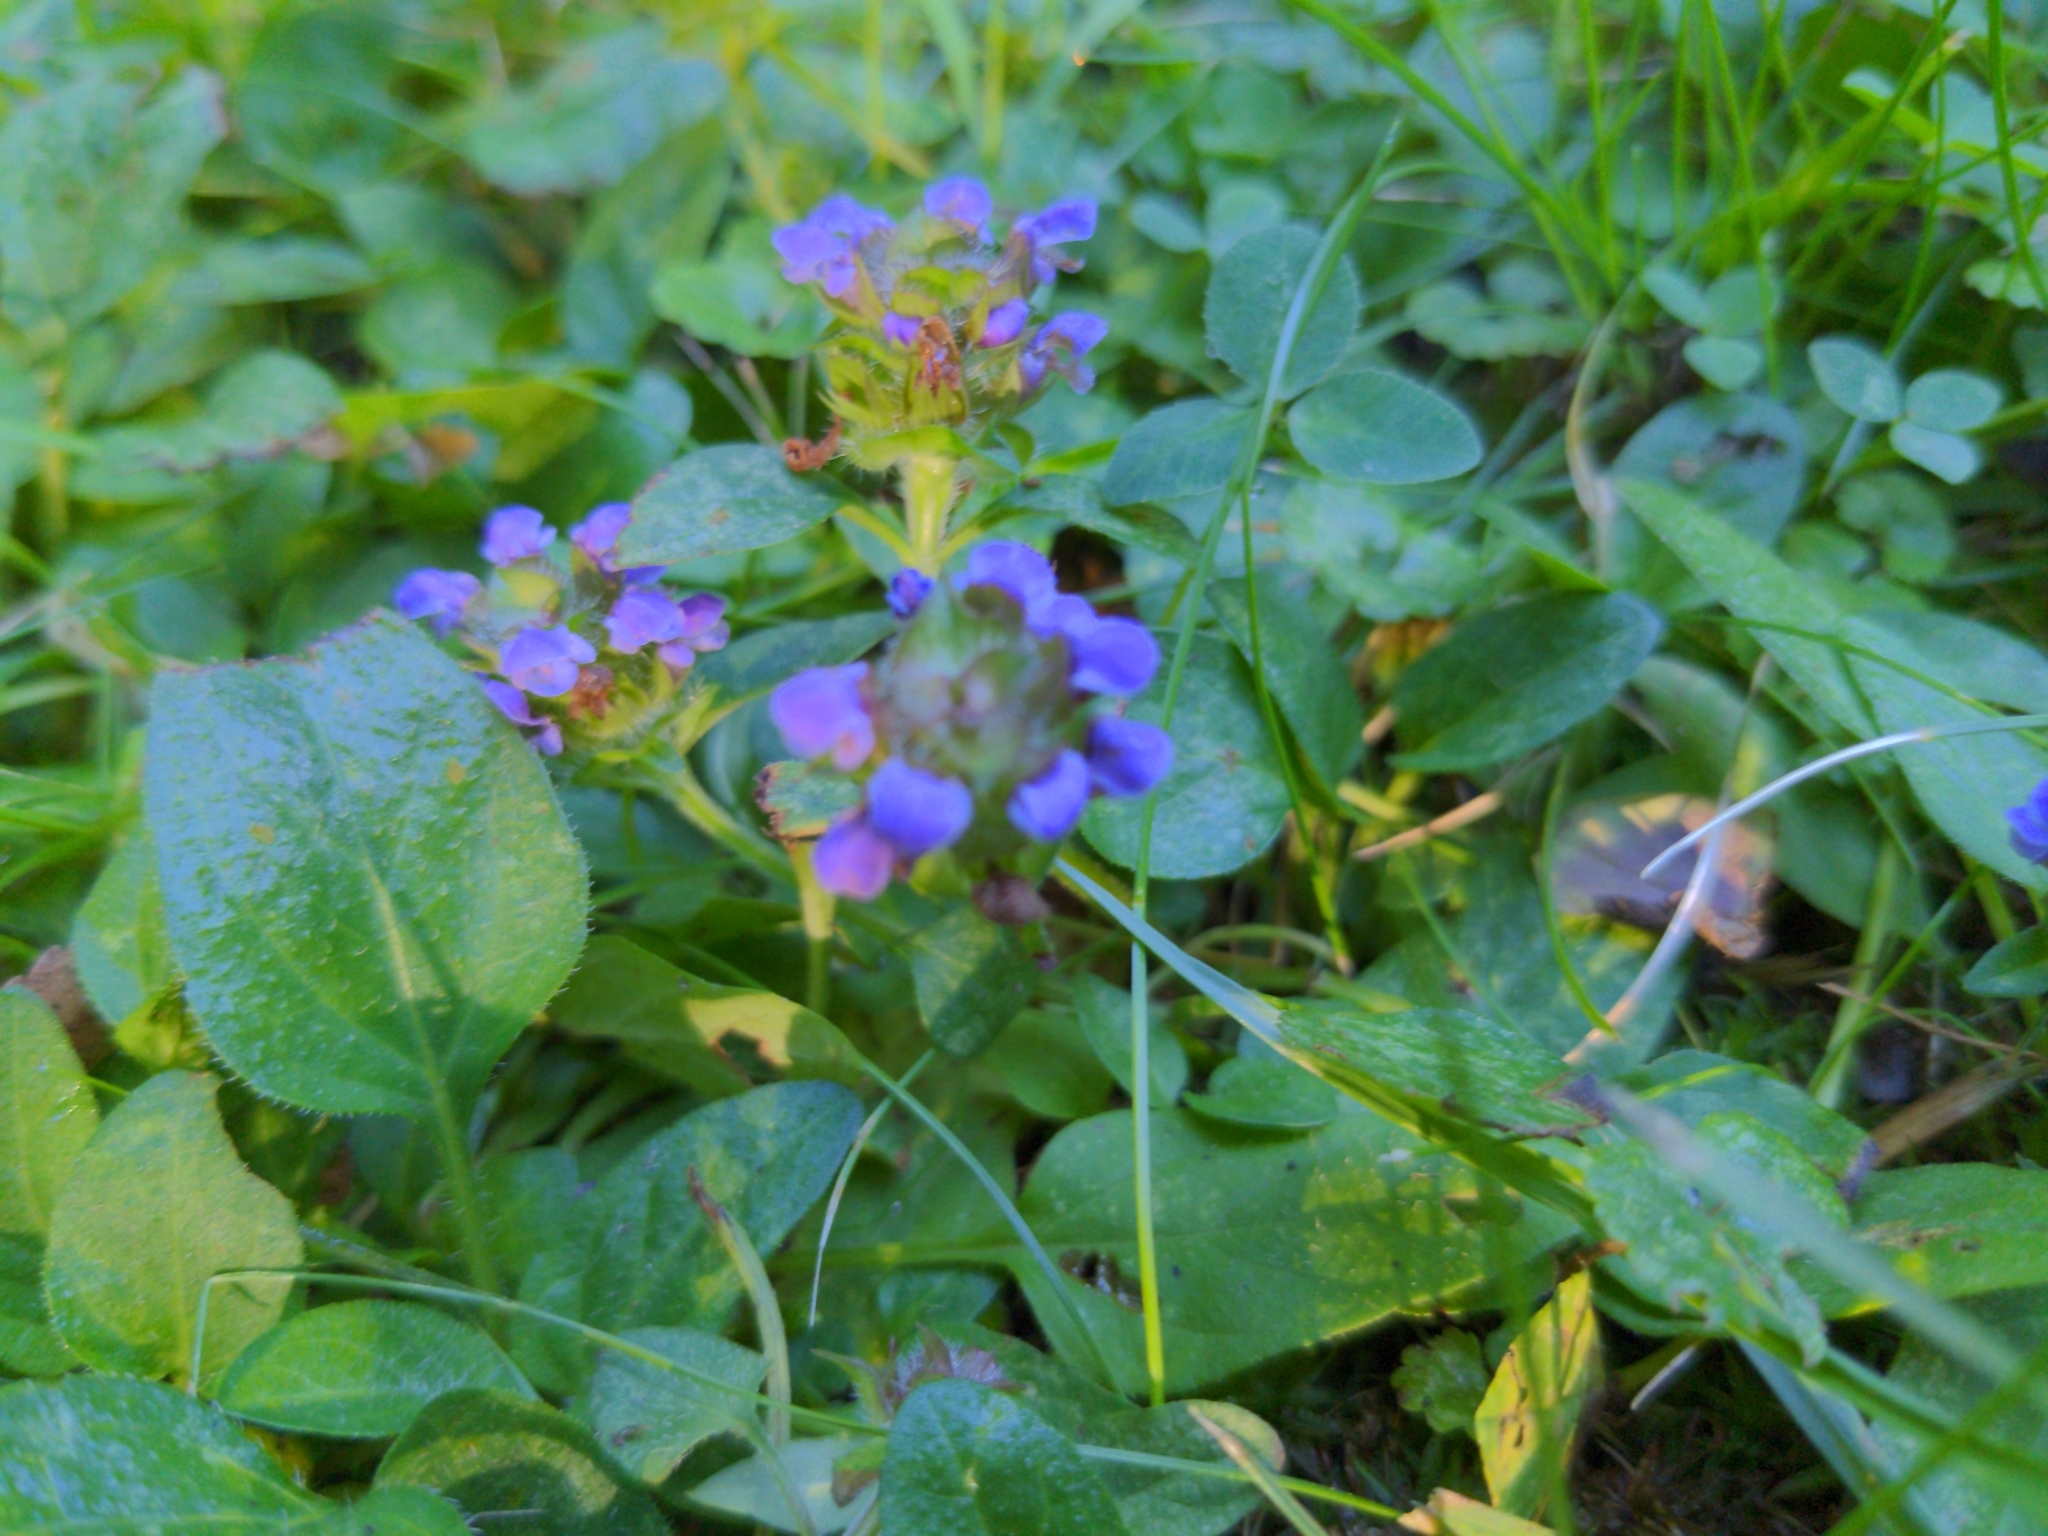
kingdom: Plantae
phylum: Tracheophyta
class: Magnoliopsida
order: Lamiales
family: Lamiaceae
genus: Prunella
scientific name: Prunella vulgaris
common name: Heal-all
